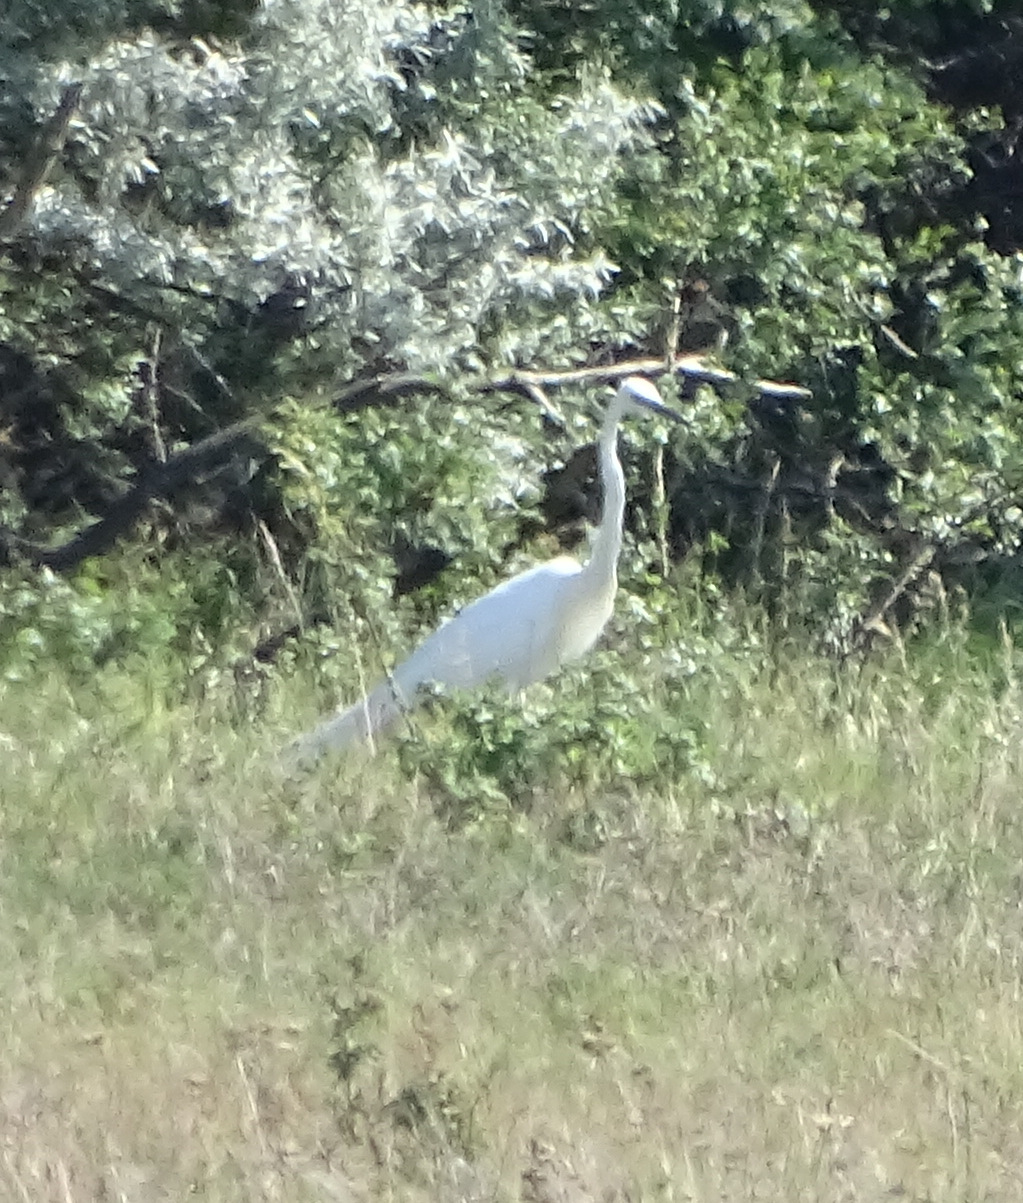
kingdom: Animalia
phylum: Chordata
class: Aves
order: Pelecaniformes
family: Ardeidae
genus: Ardea
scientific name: Ardea alba
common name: Great egret
